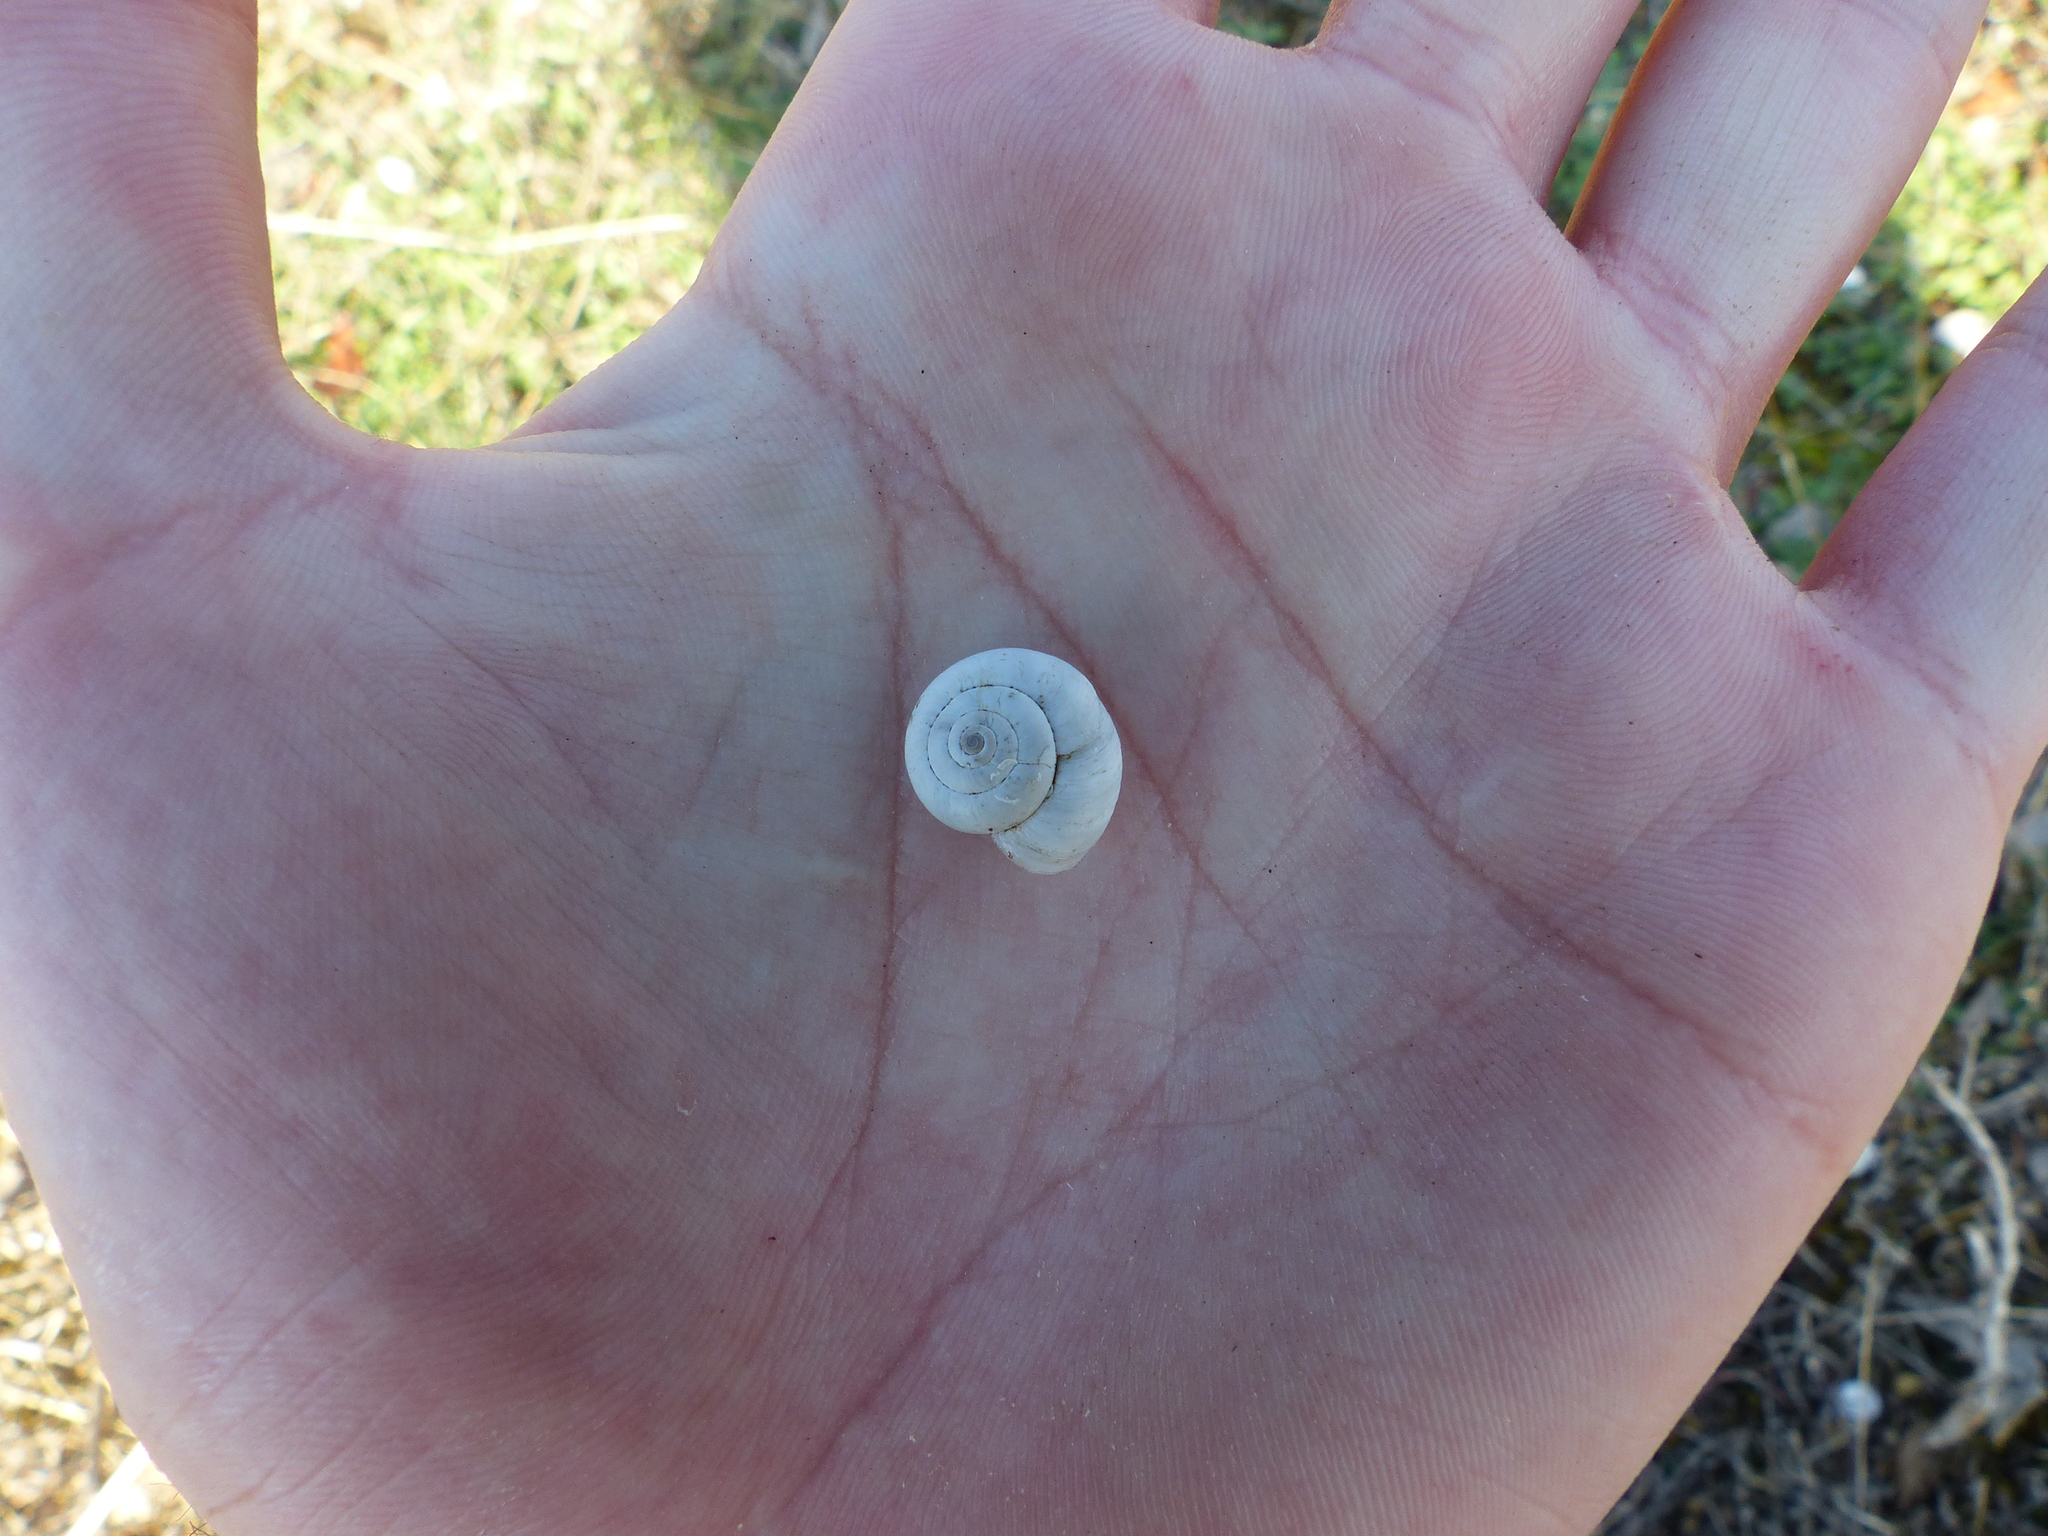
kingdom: Animalia
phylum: Mollusca
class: Gastropoda
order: Stylommatophora
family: Geomitridae
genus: Xeropicta
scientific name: Xeropicta derbentina
